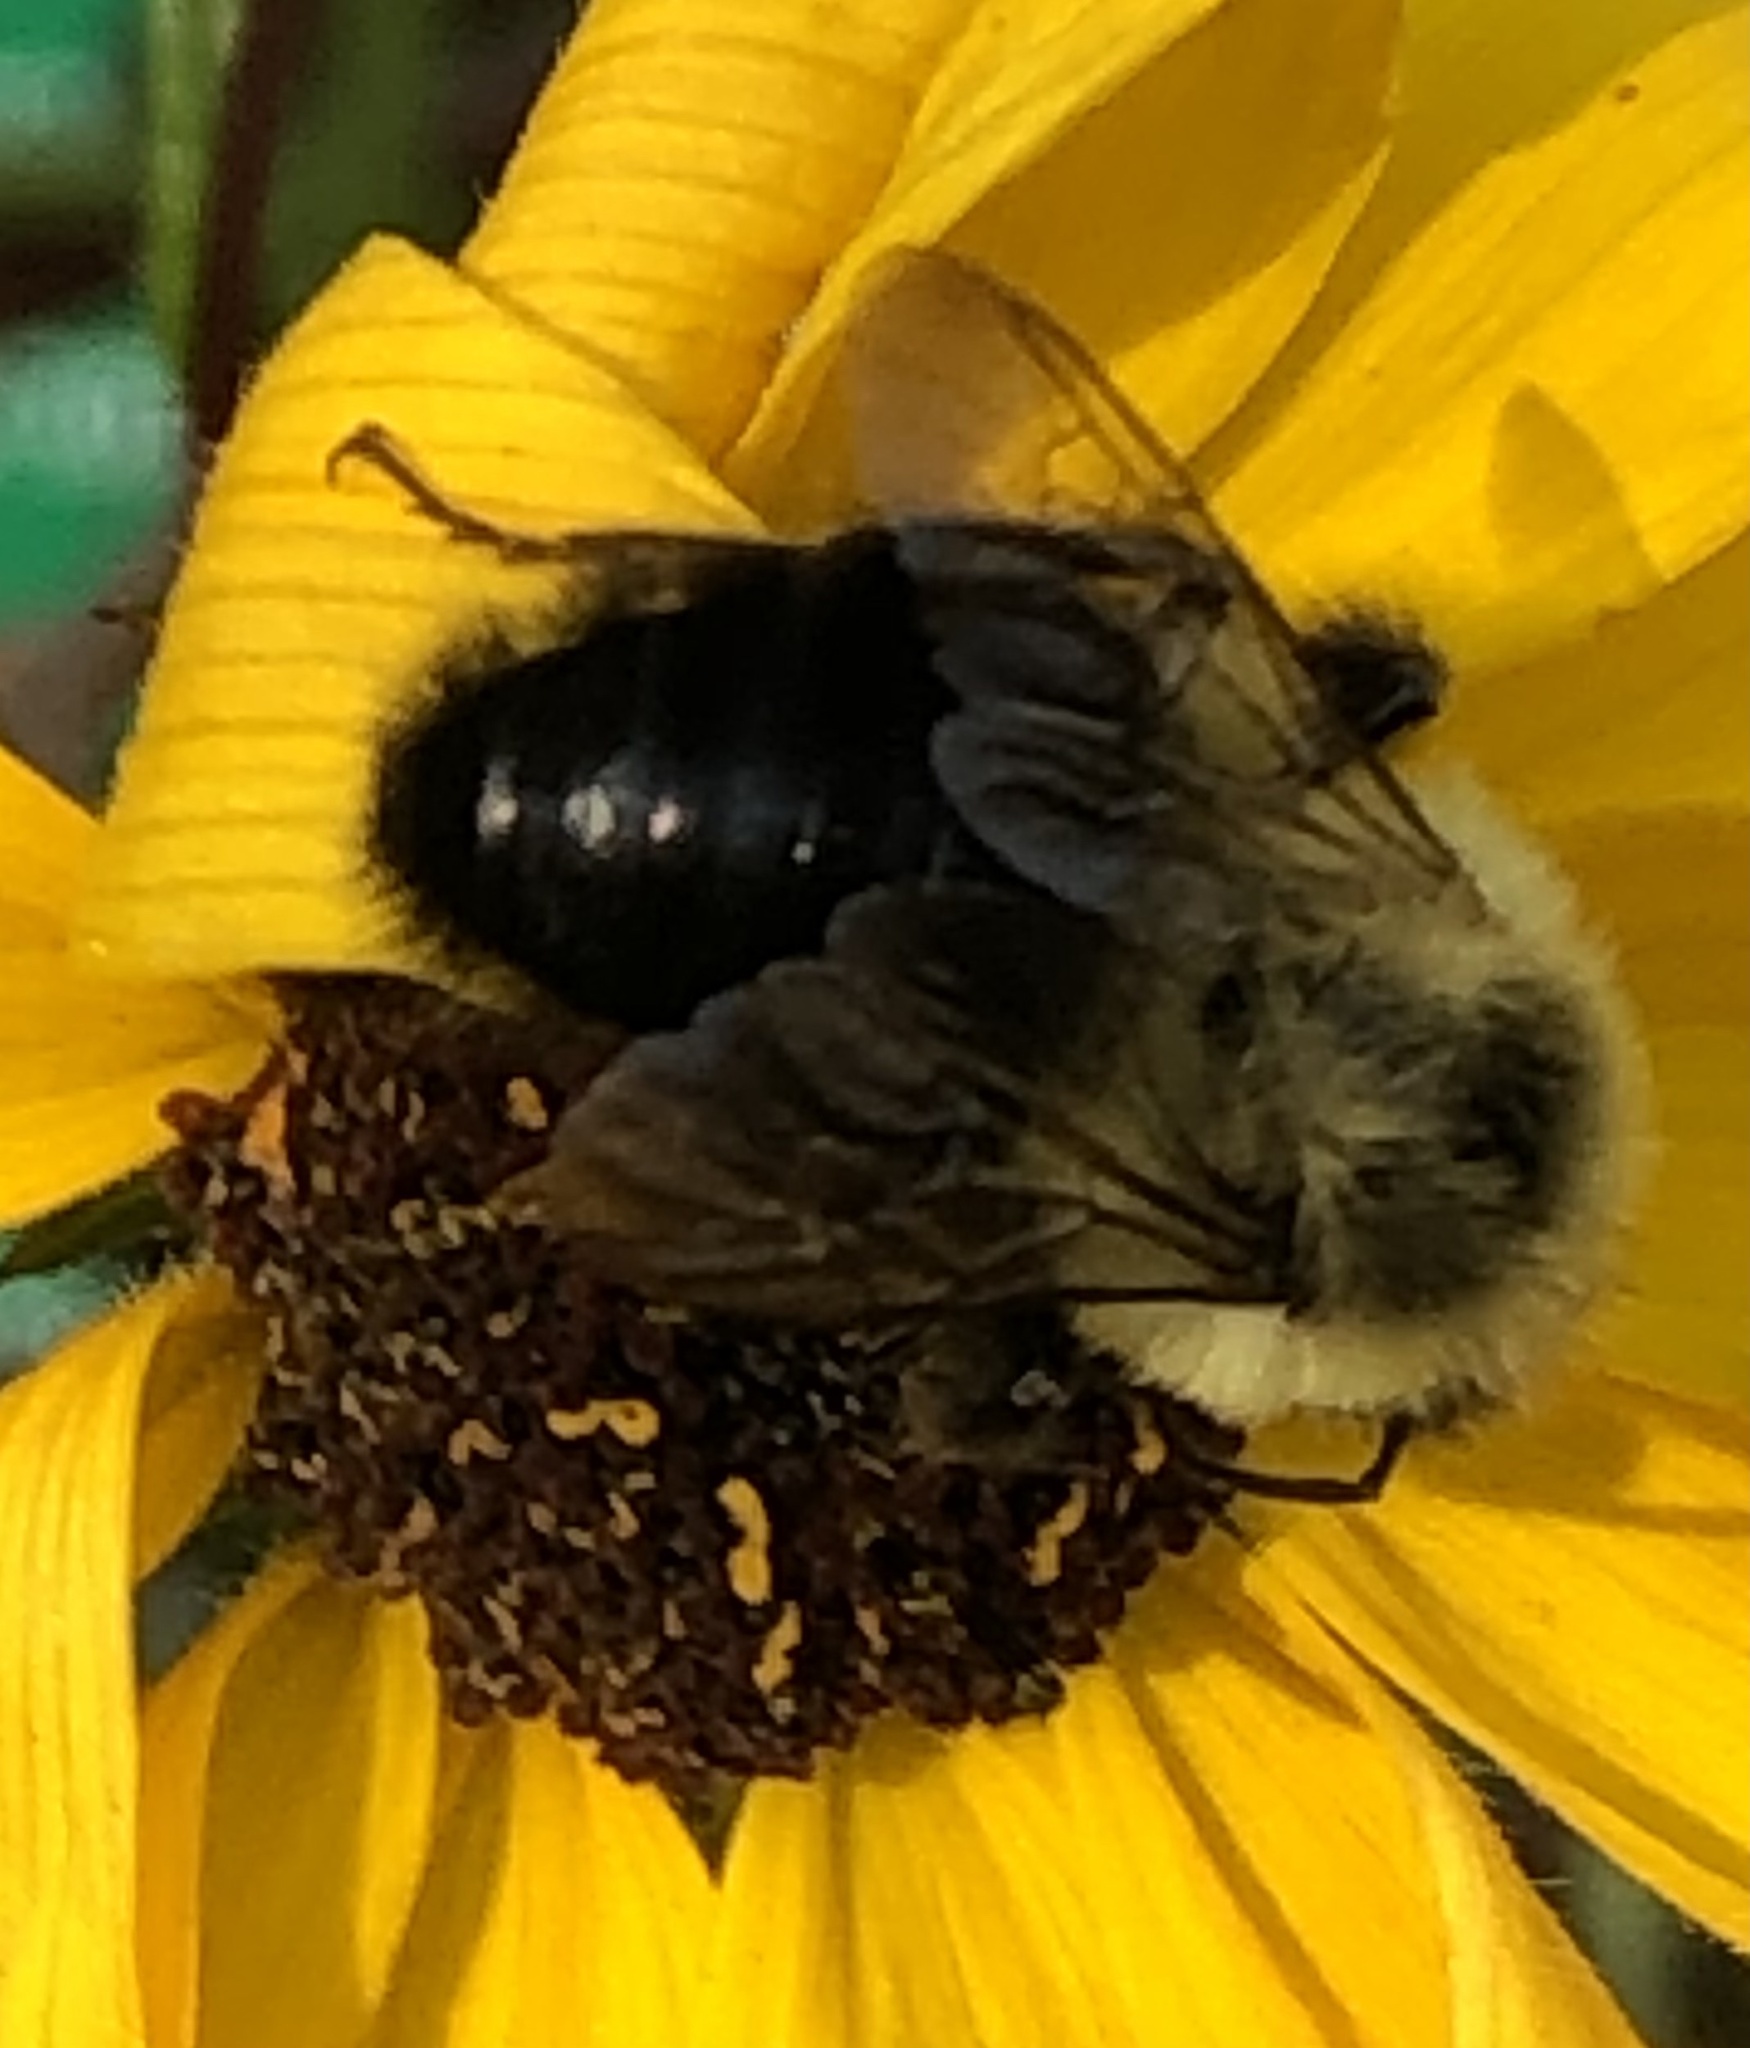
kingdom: Animalia
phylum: Arthropoda
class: Insecta
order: Hymenoptera
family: Apidae
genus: Bombus
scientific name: Bombus impatiens
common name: Common eastern bumble bee
